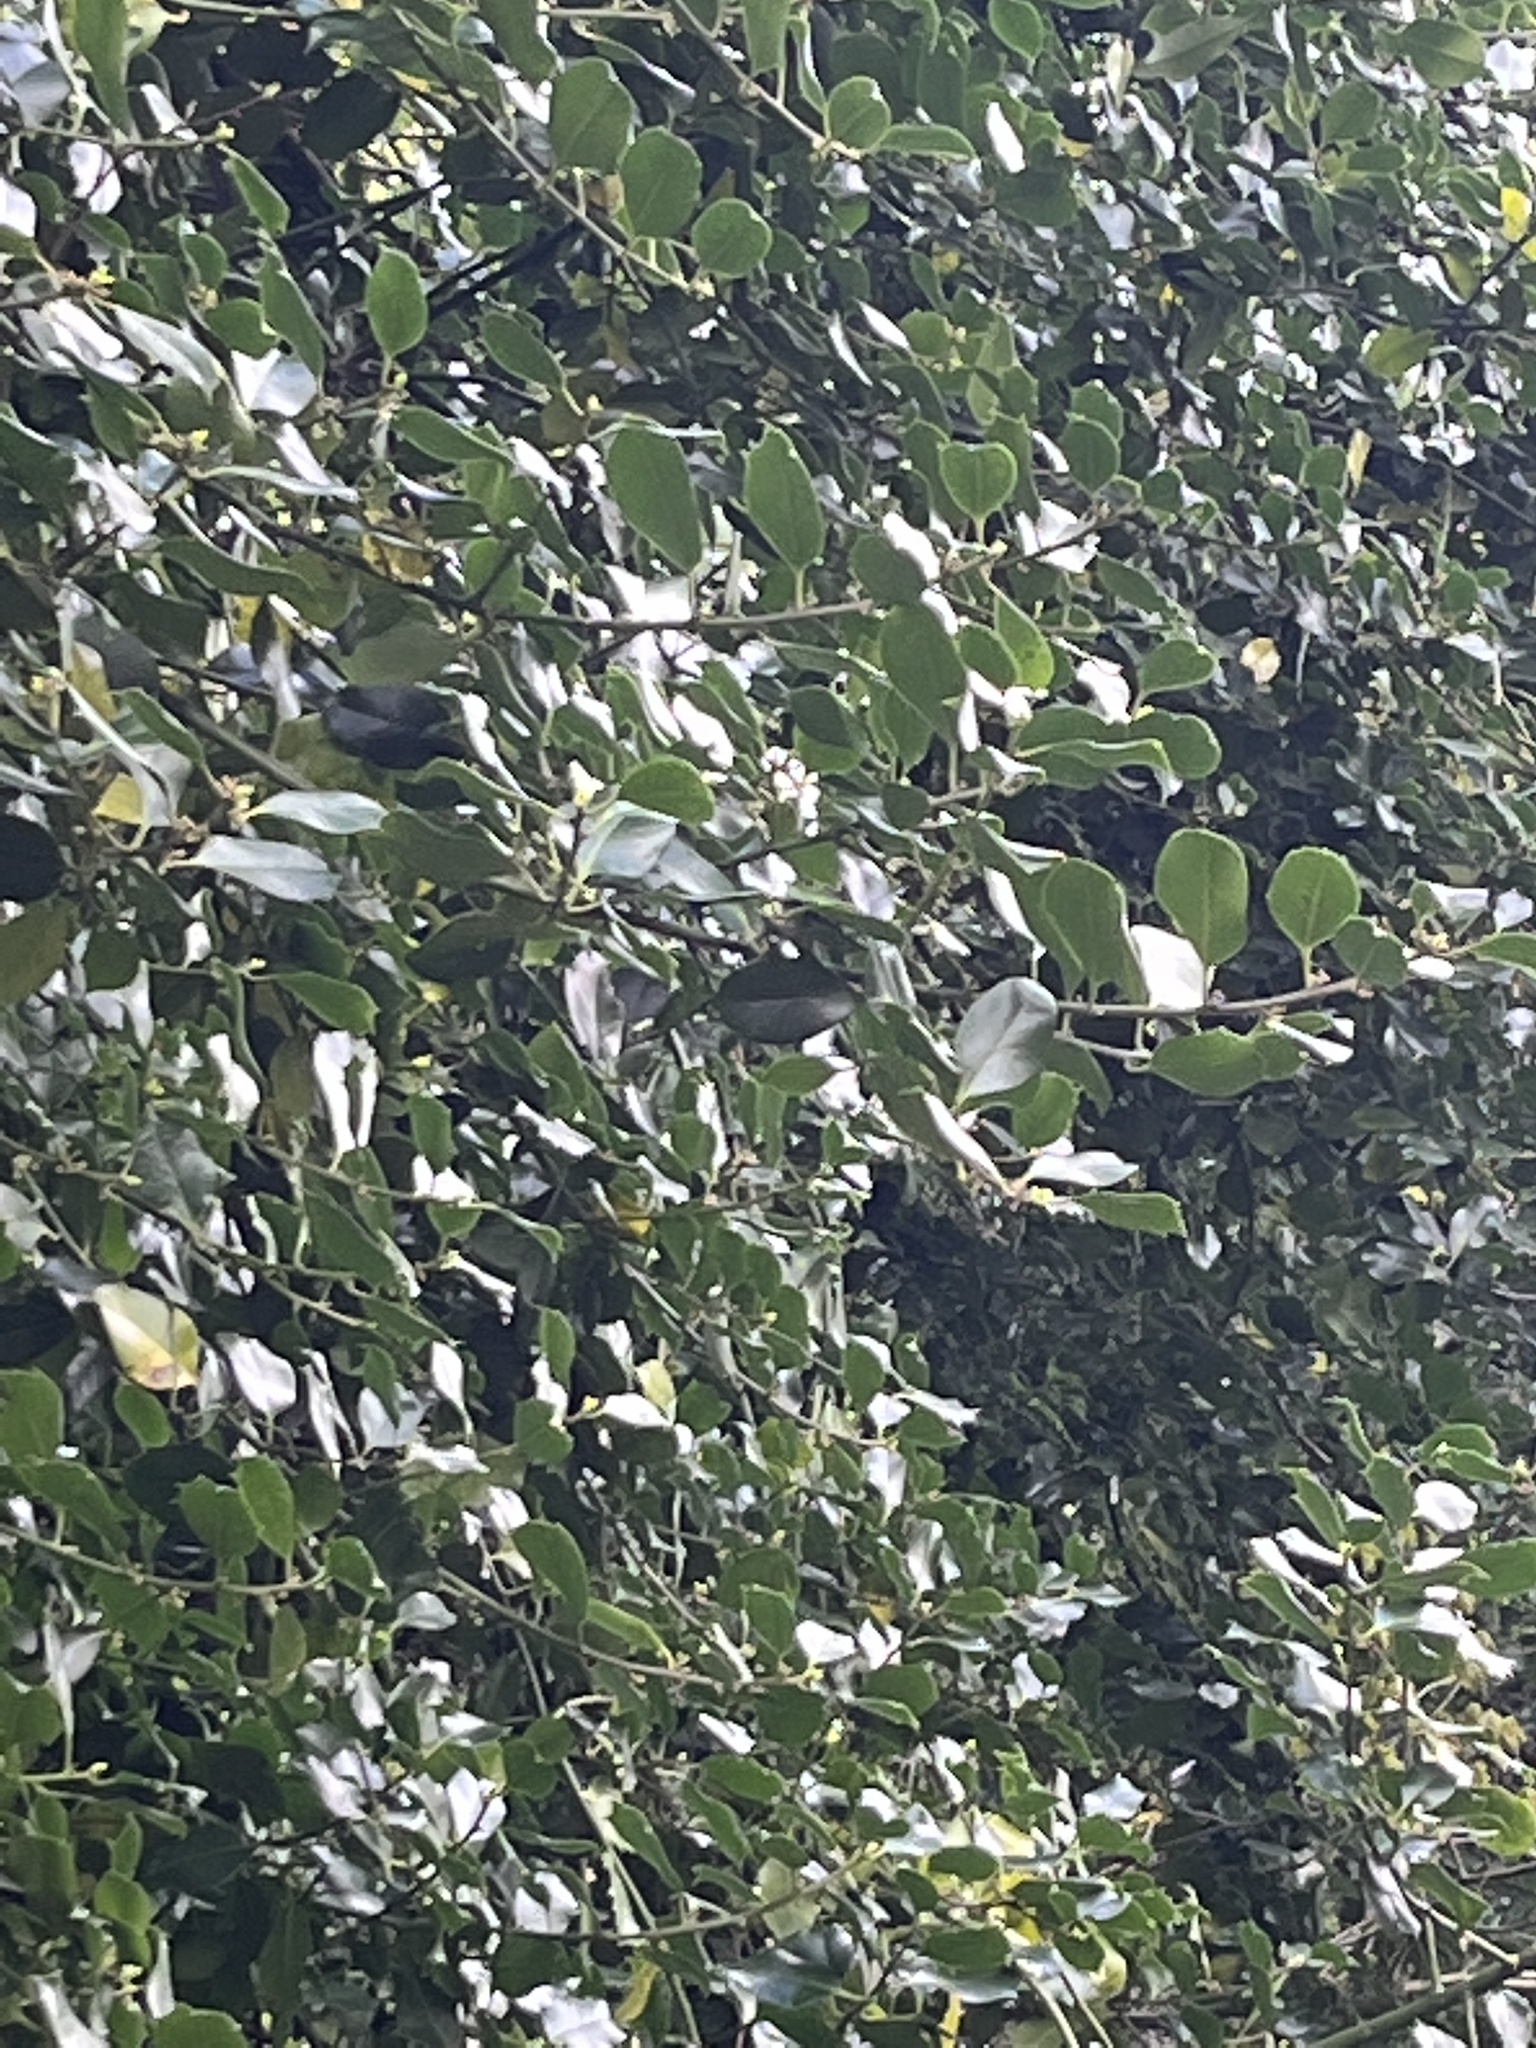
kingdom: Animalia
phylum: Chordata
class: Aves
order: Passeriformes
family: Paridae
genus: Cyanistes
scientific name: Cyanistes caeruleus
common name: Eurasian blue tit
